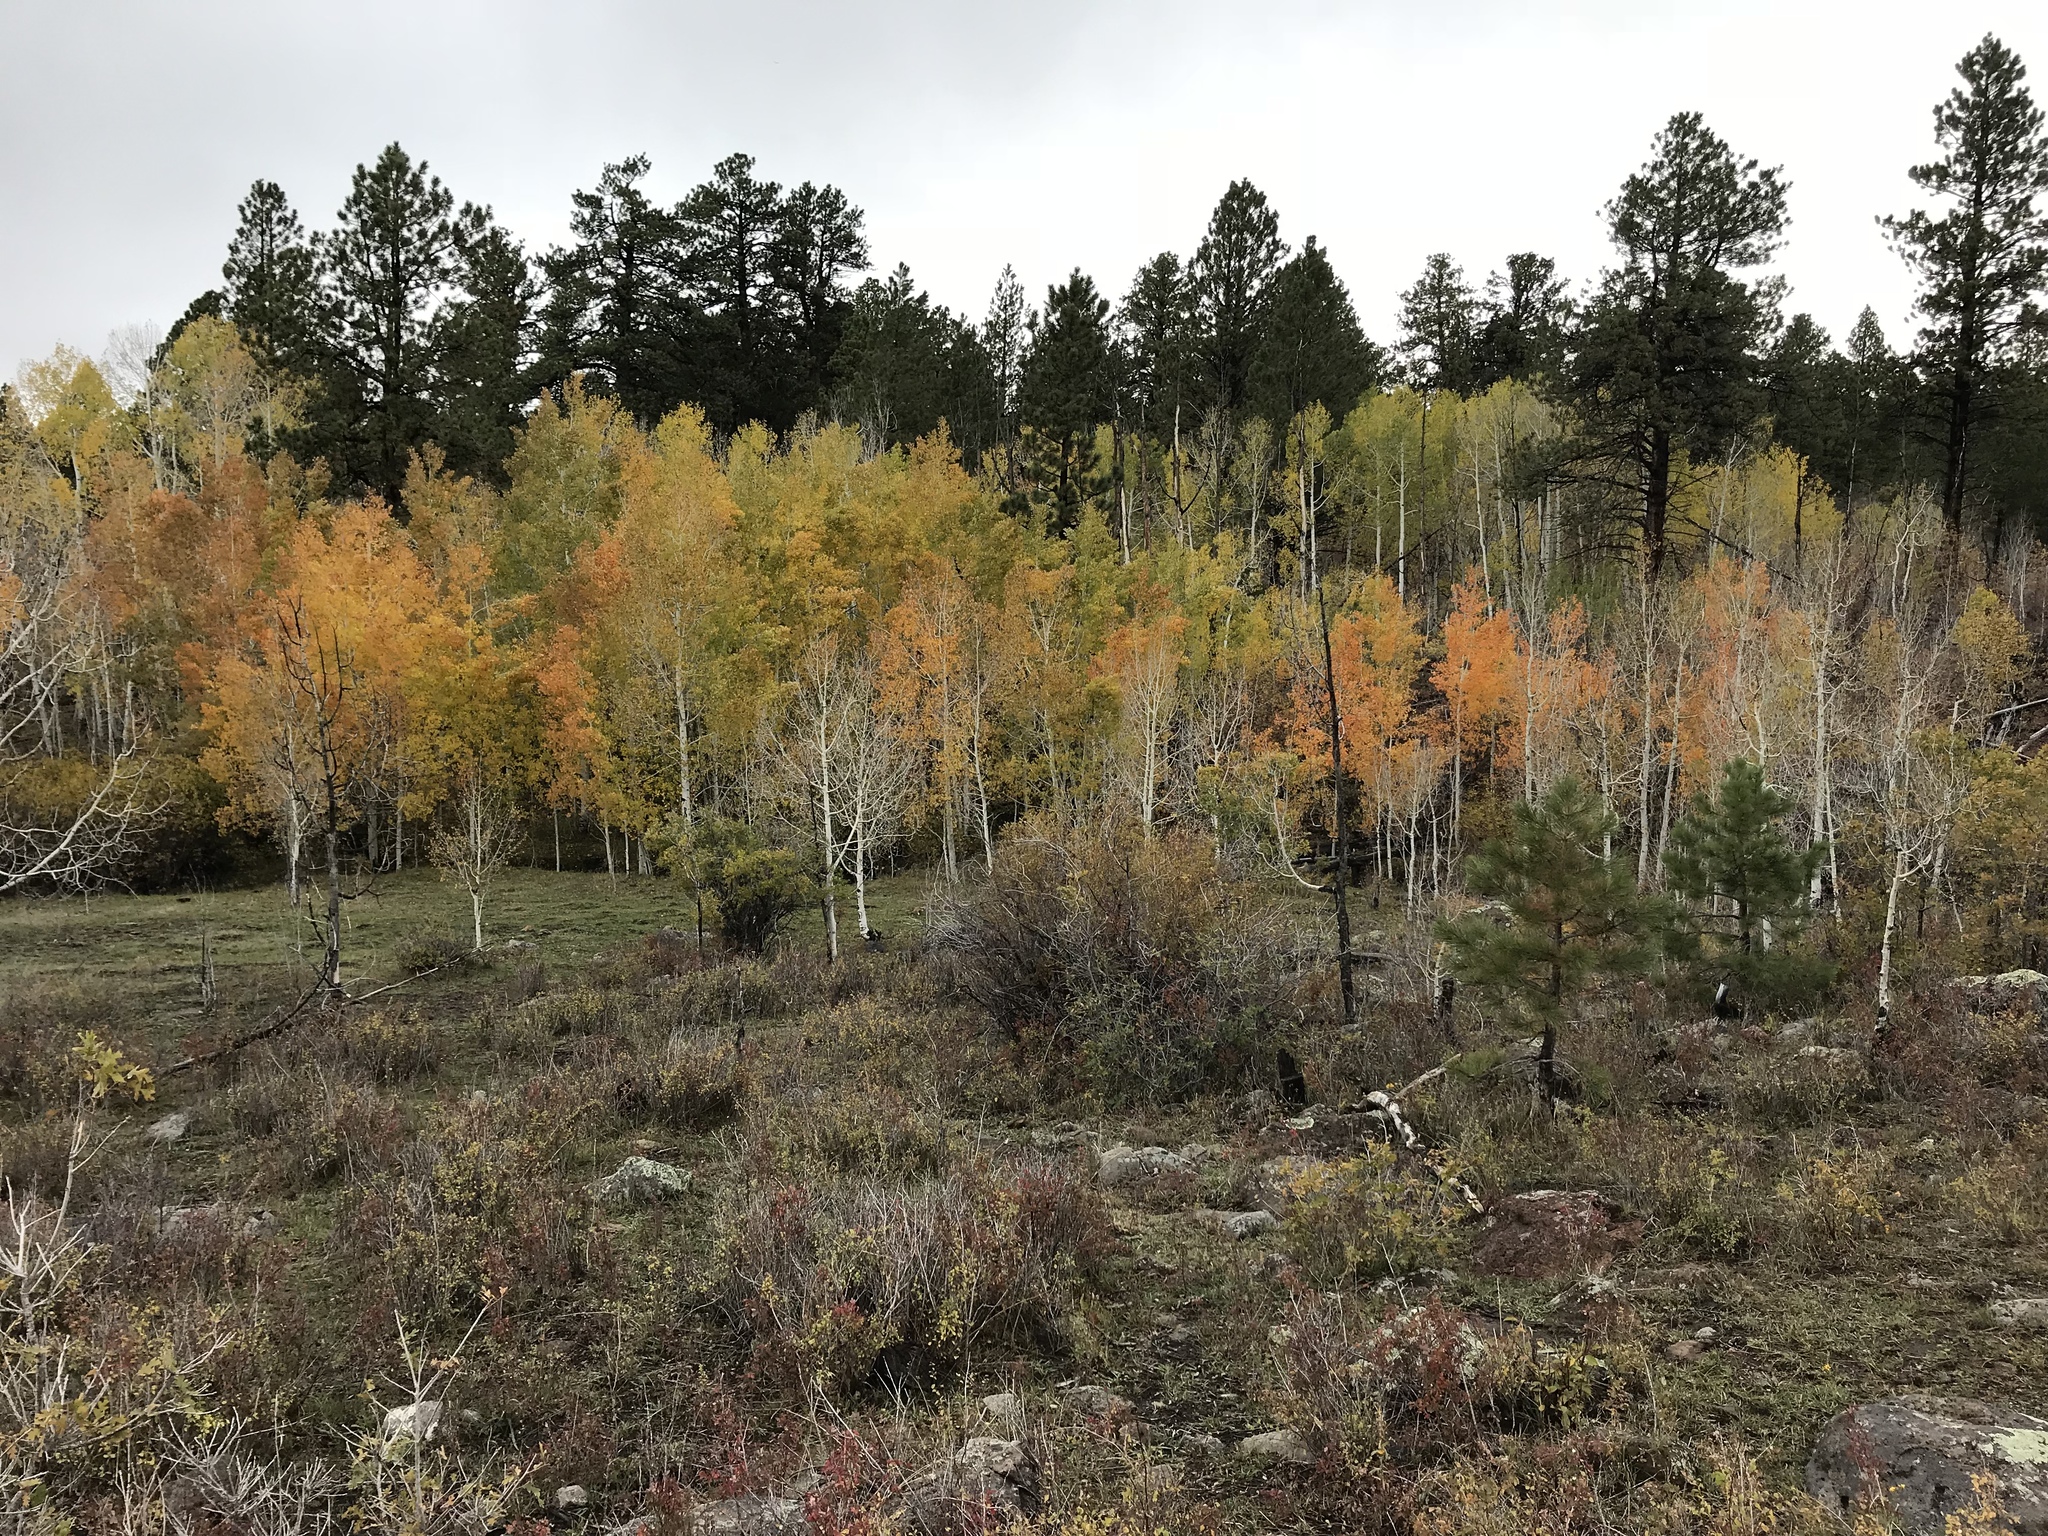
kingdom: Plantae
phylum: Tracheophyta
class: Magnoliopsida
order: Malpighiales
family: Salicaceae
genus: Populus
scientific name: Populus tremuloides
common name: Quaking aspen
